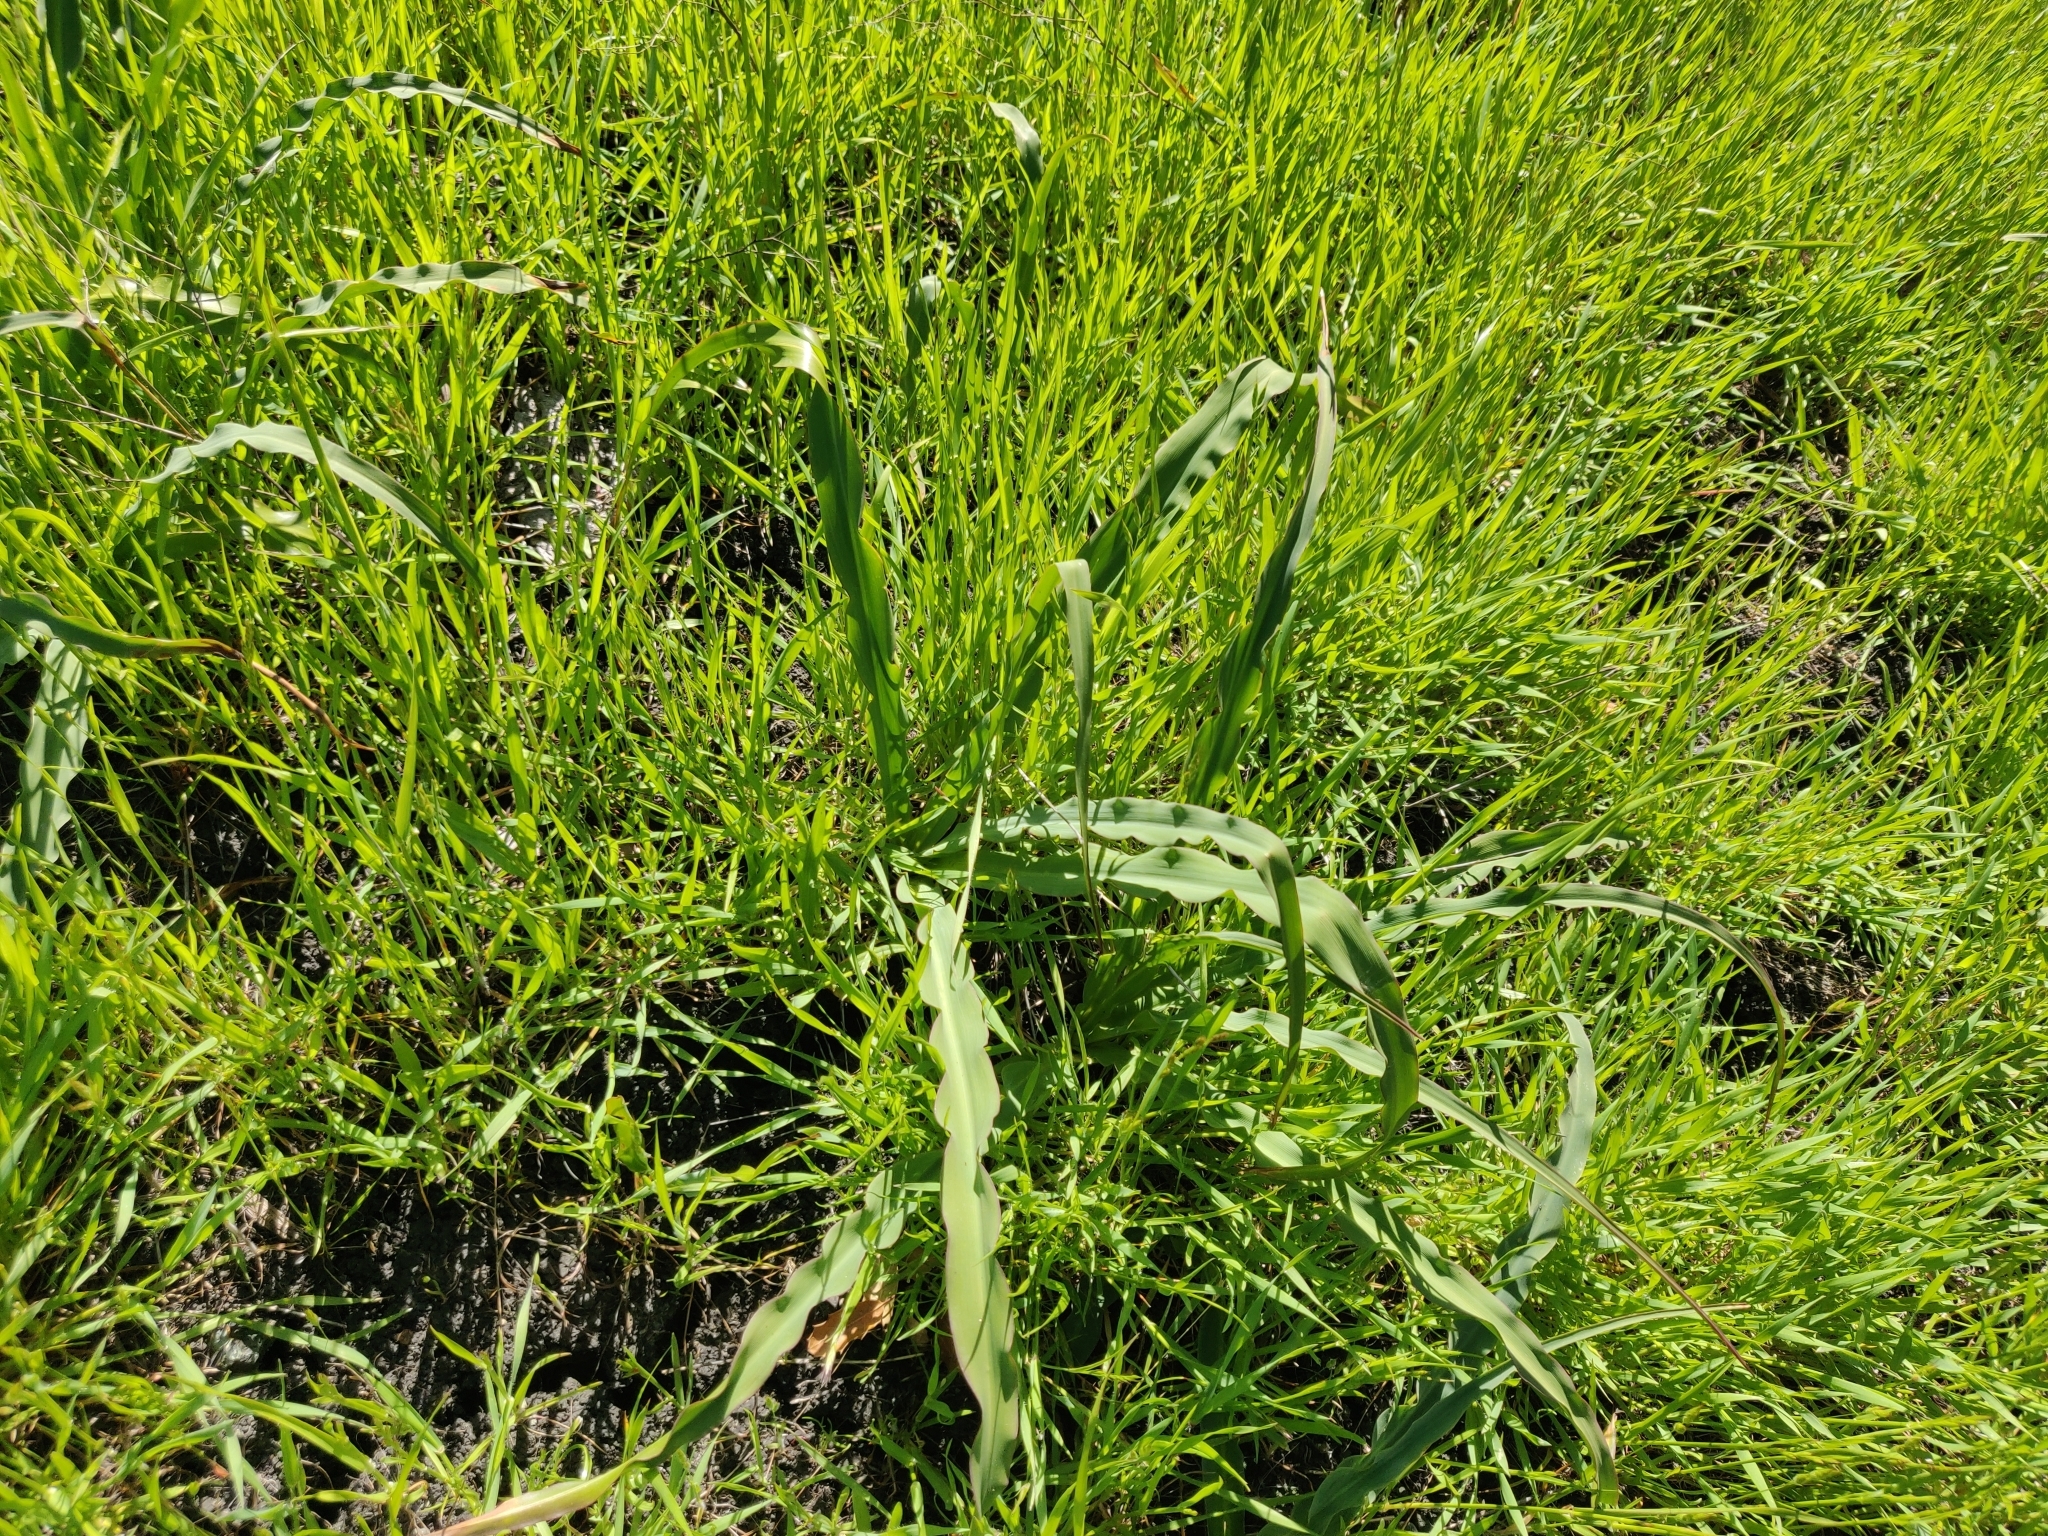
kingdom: Plantae
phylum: Tracheophyta
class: Liliopsida
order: Asparagales
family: Asparagaceae
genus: Chlorogalum
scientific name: Chlorogalum pomeridianum
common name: Amole
